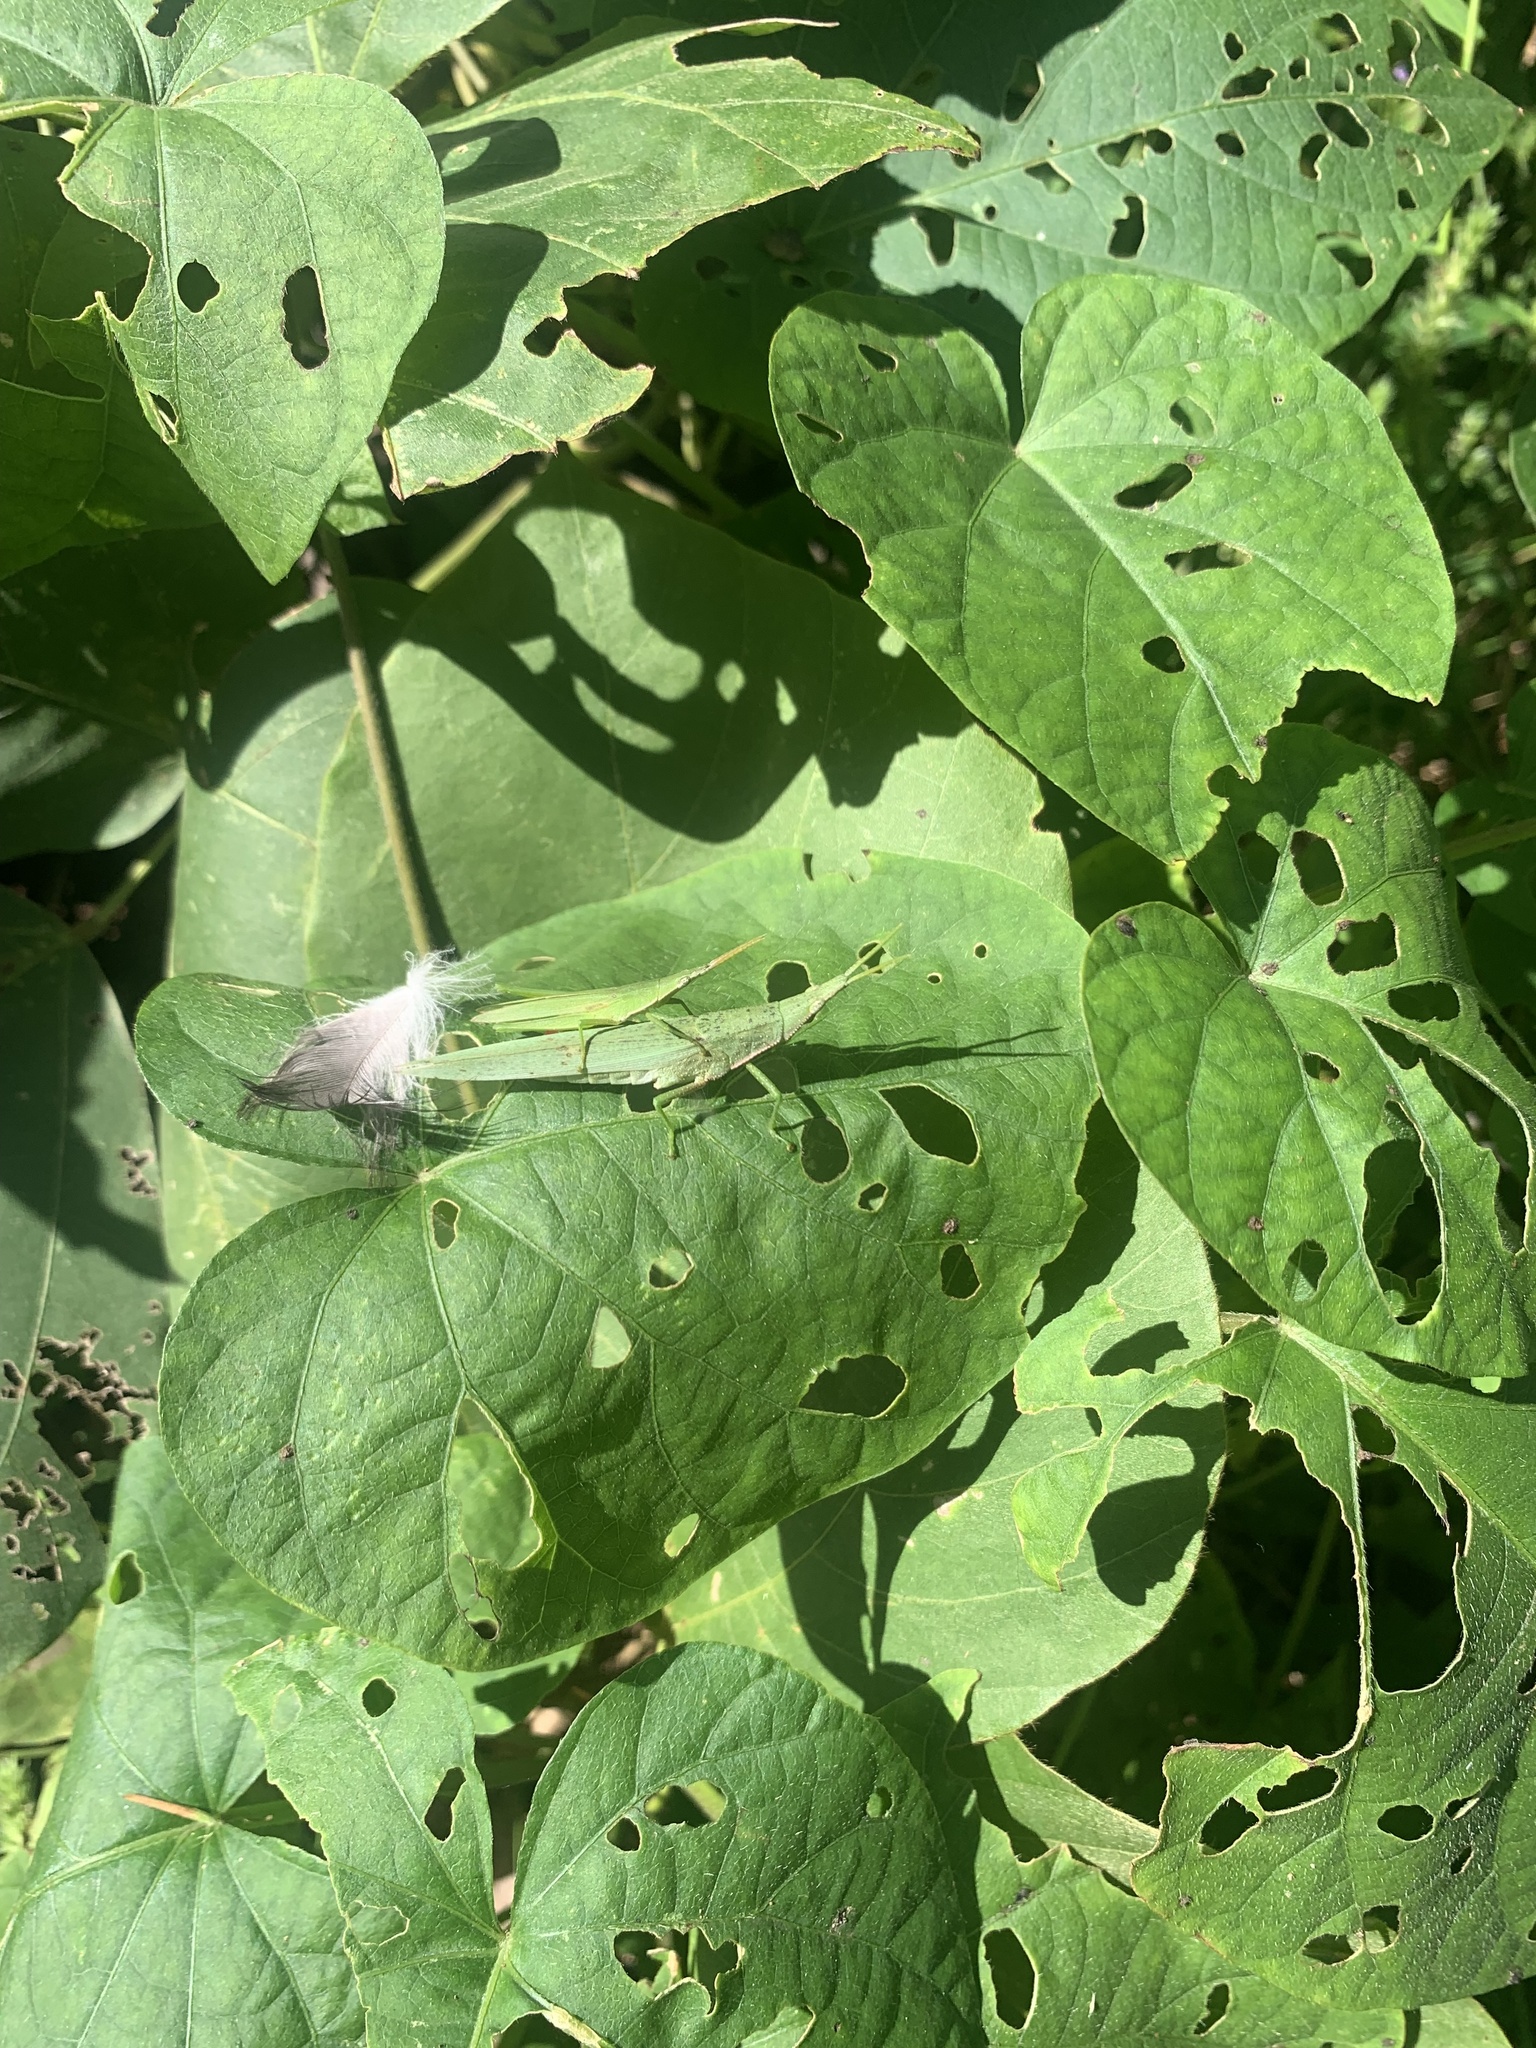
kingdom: Animalia
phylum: Arthropoda
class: Insecta
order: Orthoptera
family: Pyrgomorphidae
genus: Atractomorpha
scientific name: Atractomorpha lata
